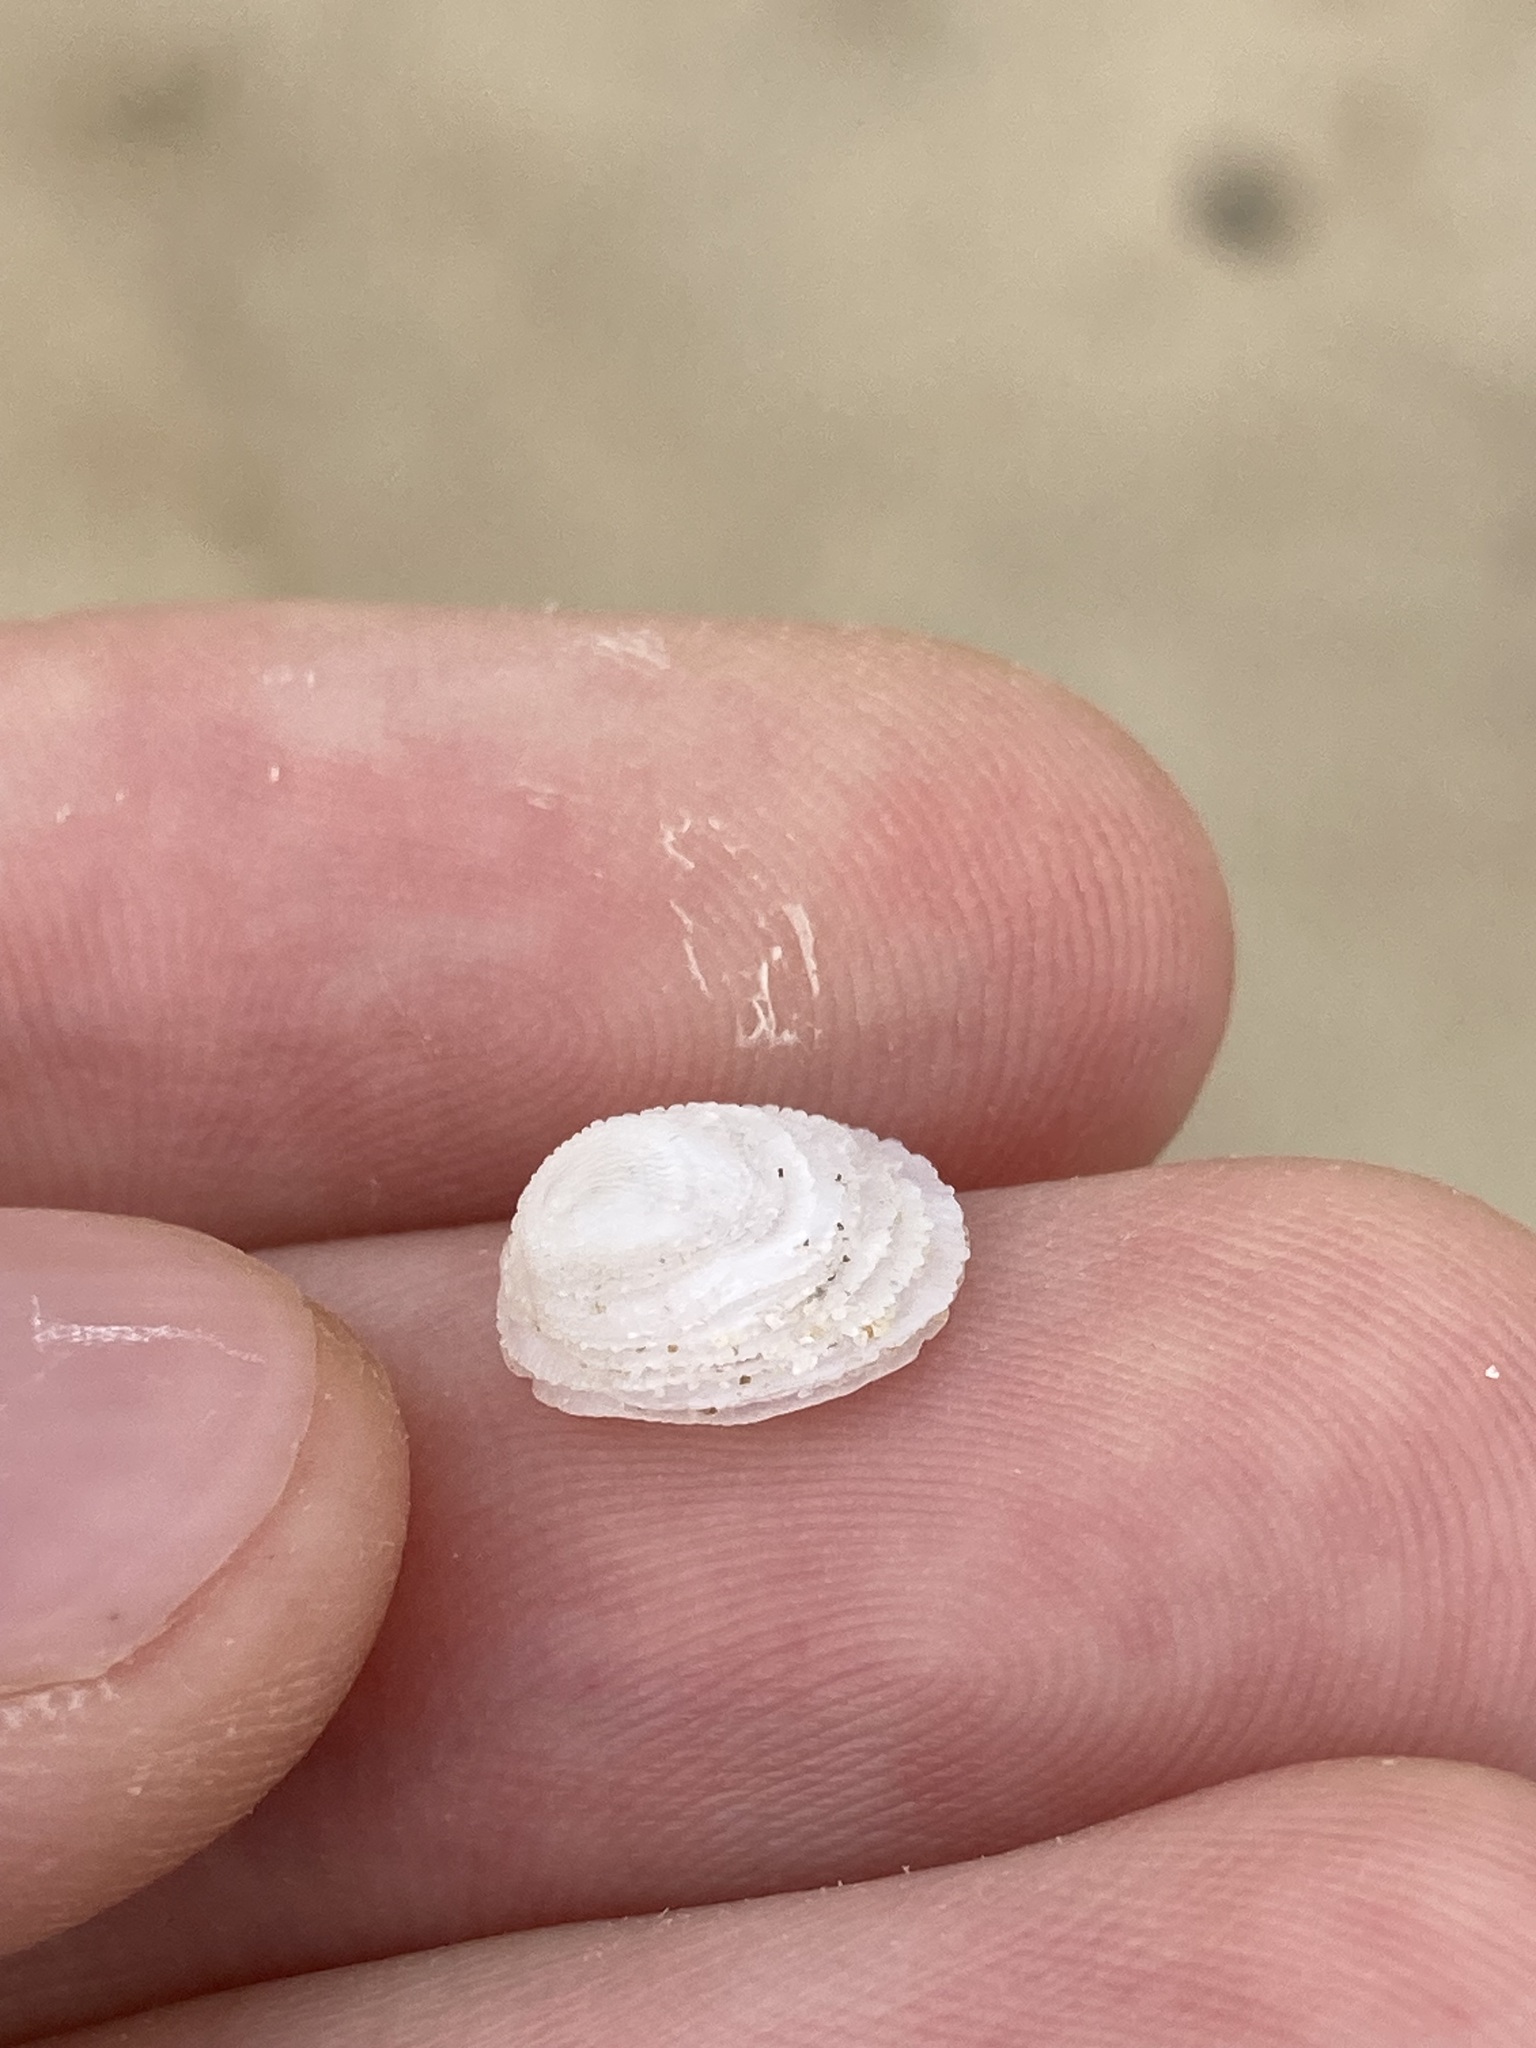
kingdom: Animalia
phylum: Mollusca
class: Gastropoda
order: Littorinimorpha
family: Hipponicidae
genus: Antisabia
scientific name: Antisabia foliacea
